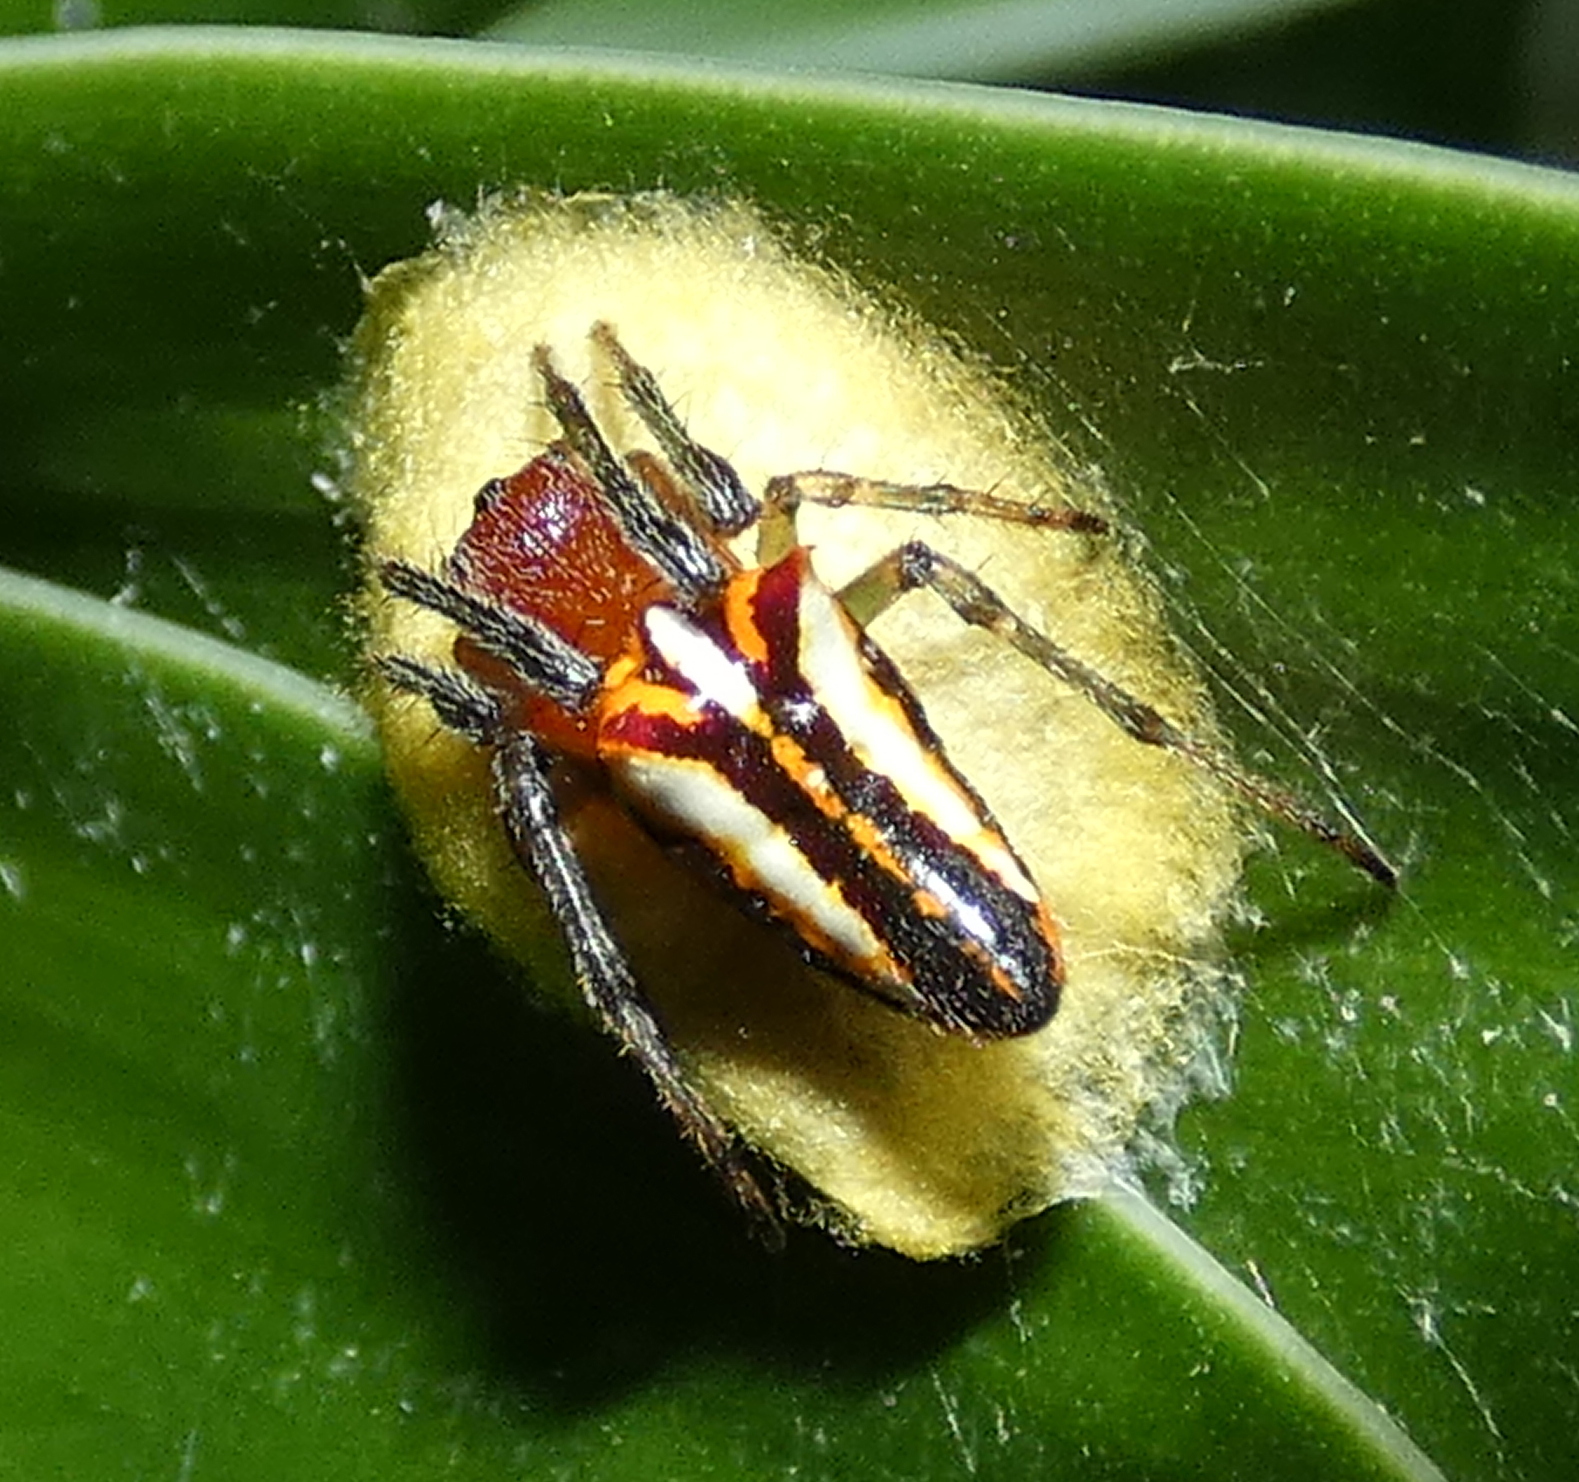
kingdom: Animalia
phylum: Arthropoda
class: Arachnida
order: Araneae
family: Araneidae
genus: Alpaida
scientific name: Alpaida bicornuta
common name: Orb weavers
